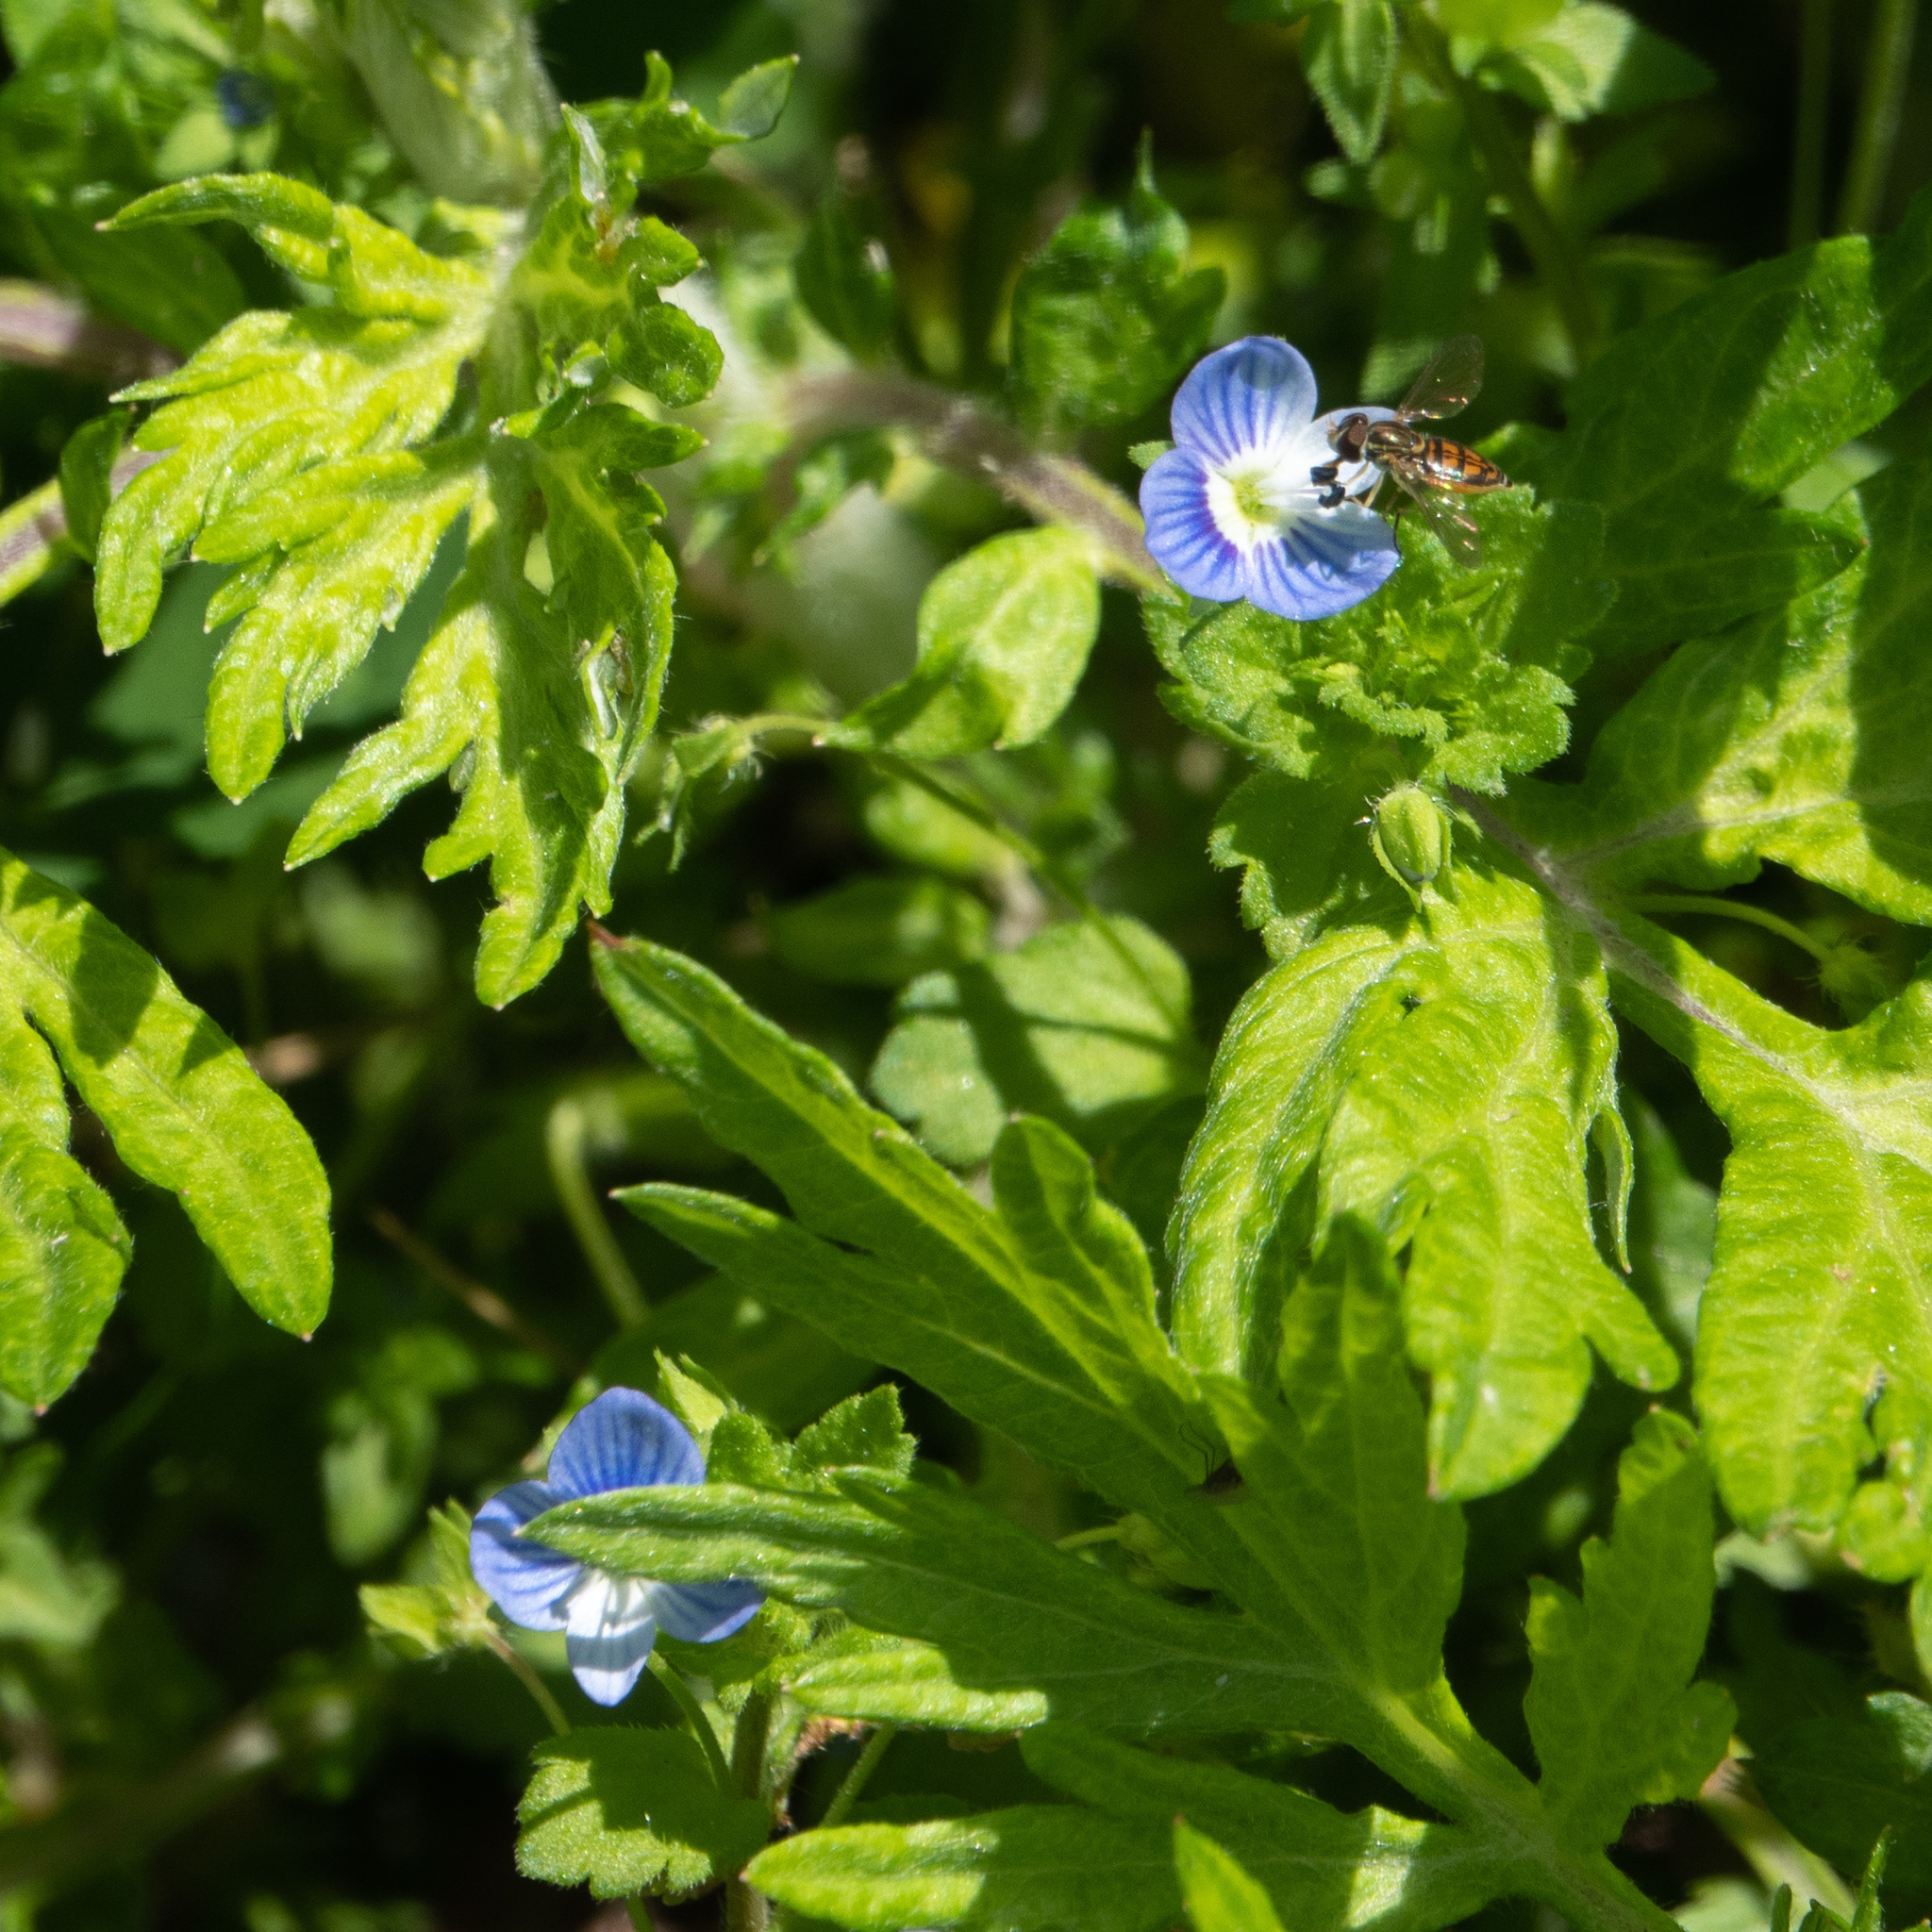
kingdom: Animalia
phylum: Arthropoda
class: Insecta
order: Diptera
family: Syrphidae
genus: Toxomerus
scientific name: Toxomerus marginatus
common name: Syrphid fly
